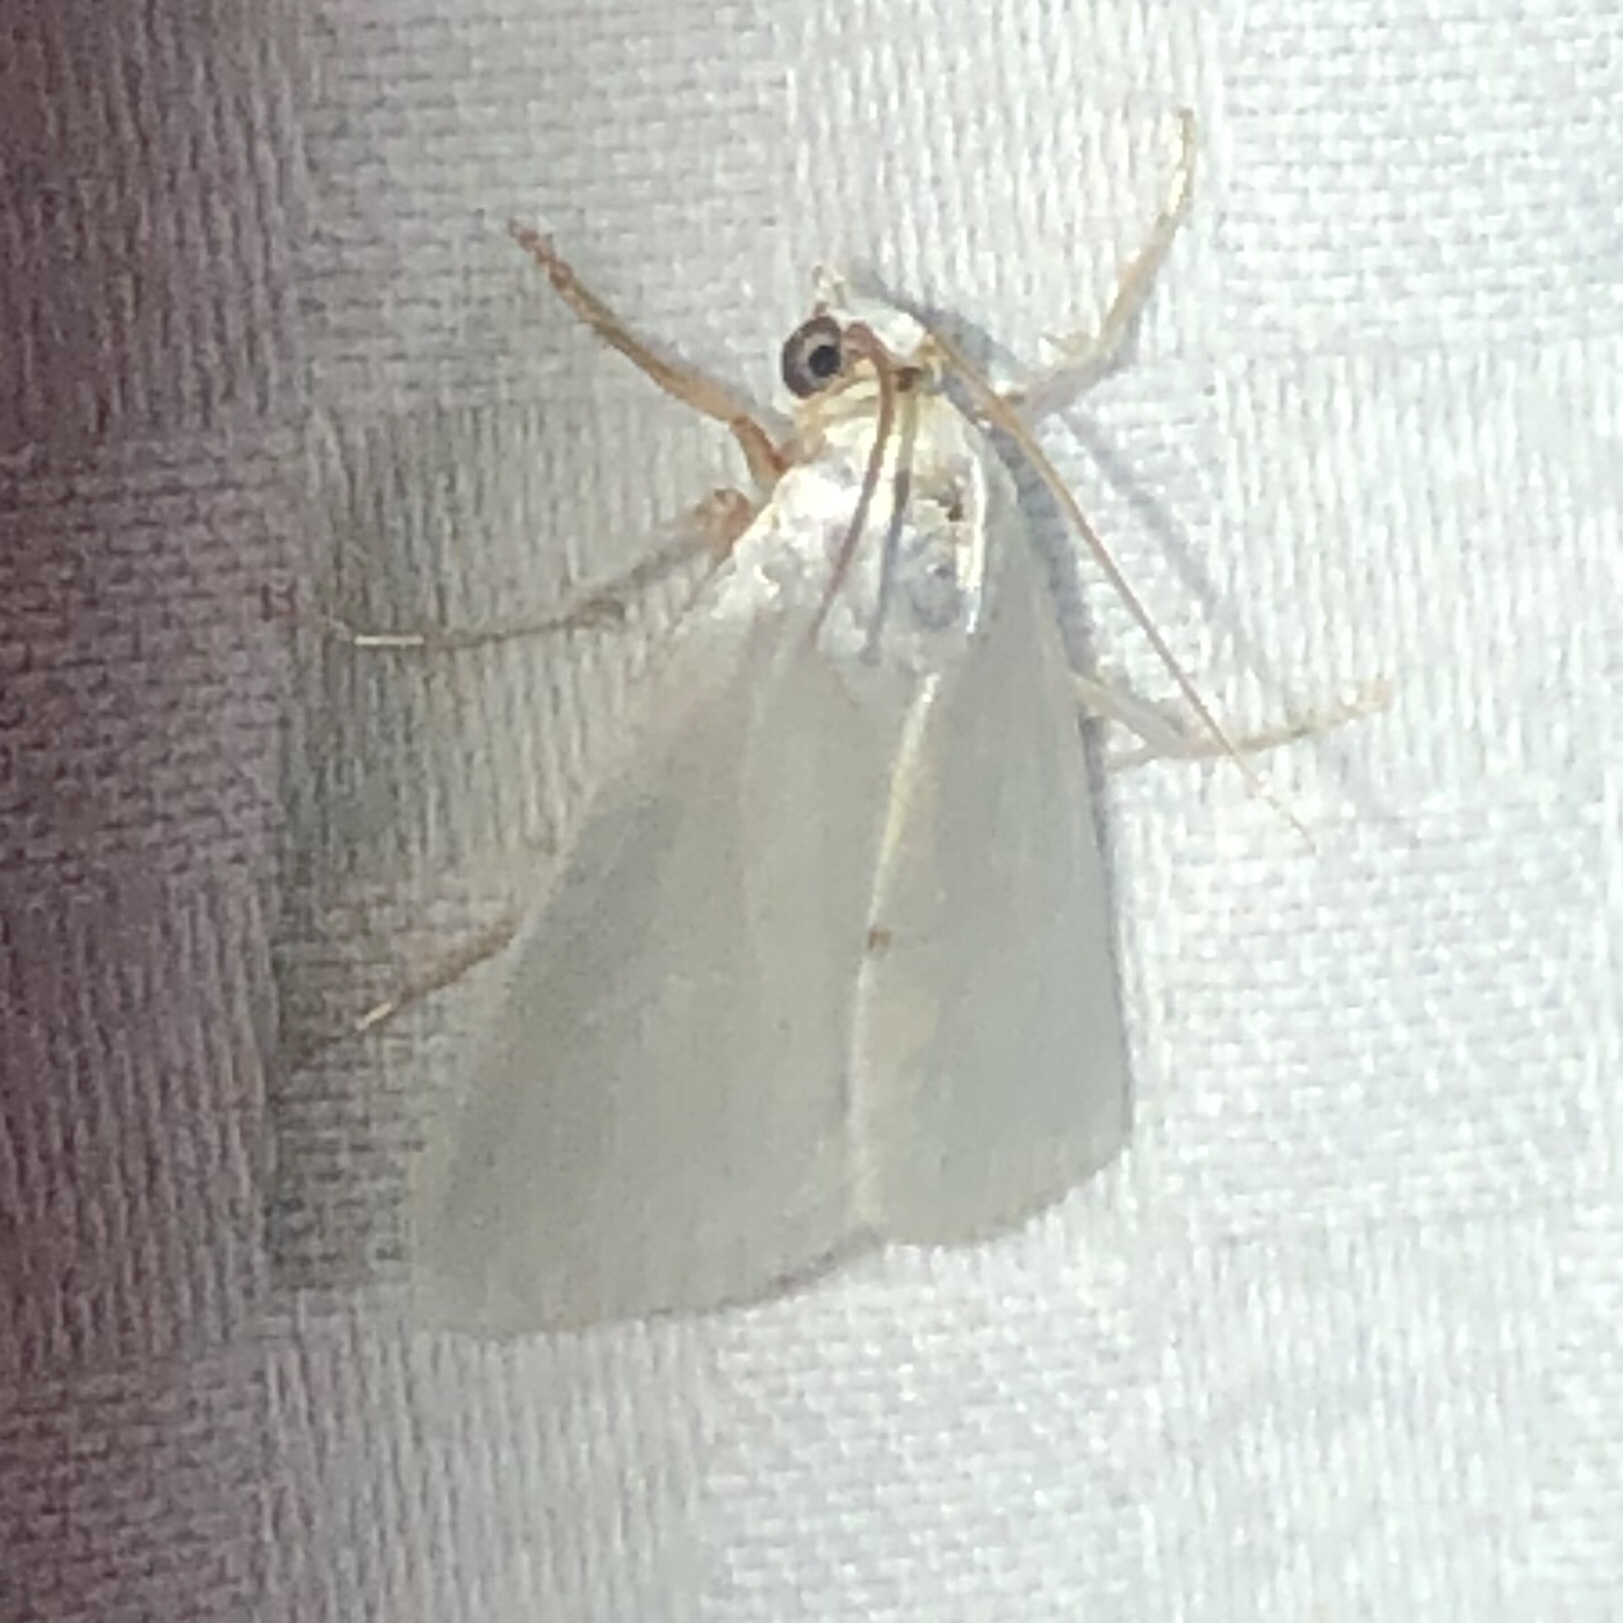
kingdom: Animalia
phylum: Arthropoda
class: Insecta
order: Lepidoptera
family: Crambidae
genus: Argyria
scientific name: Argyria nivalis
